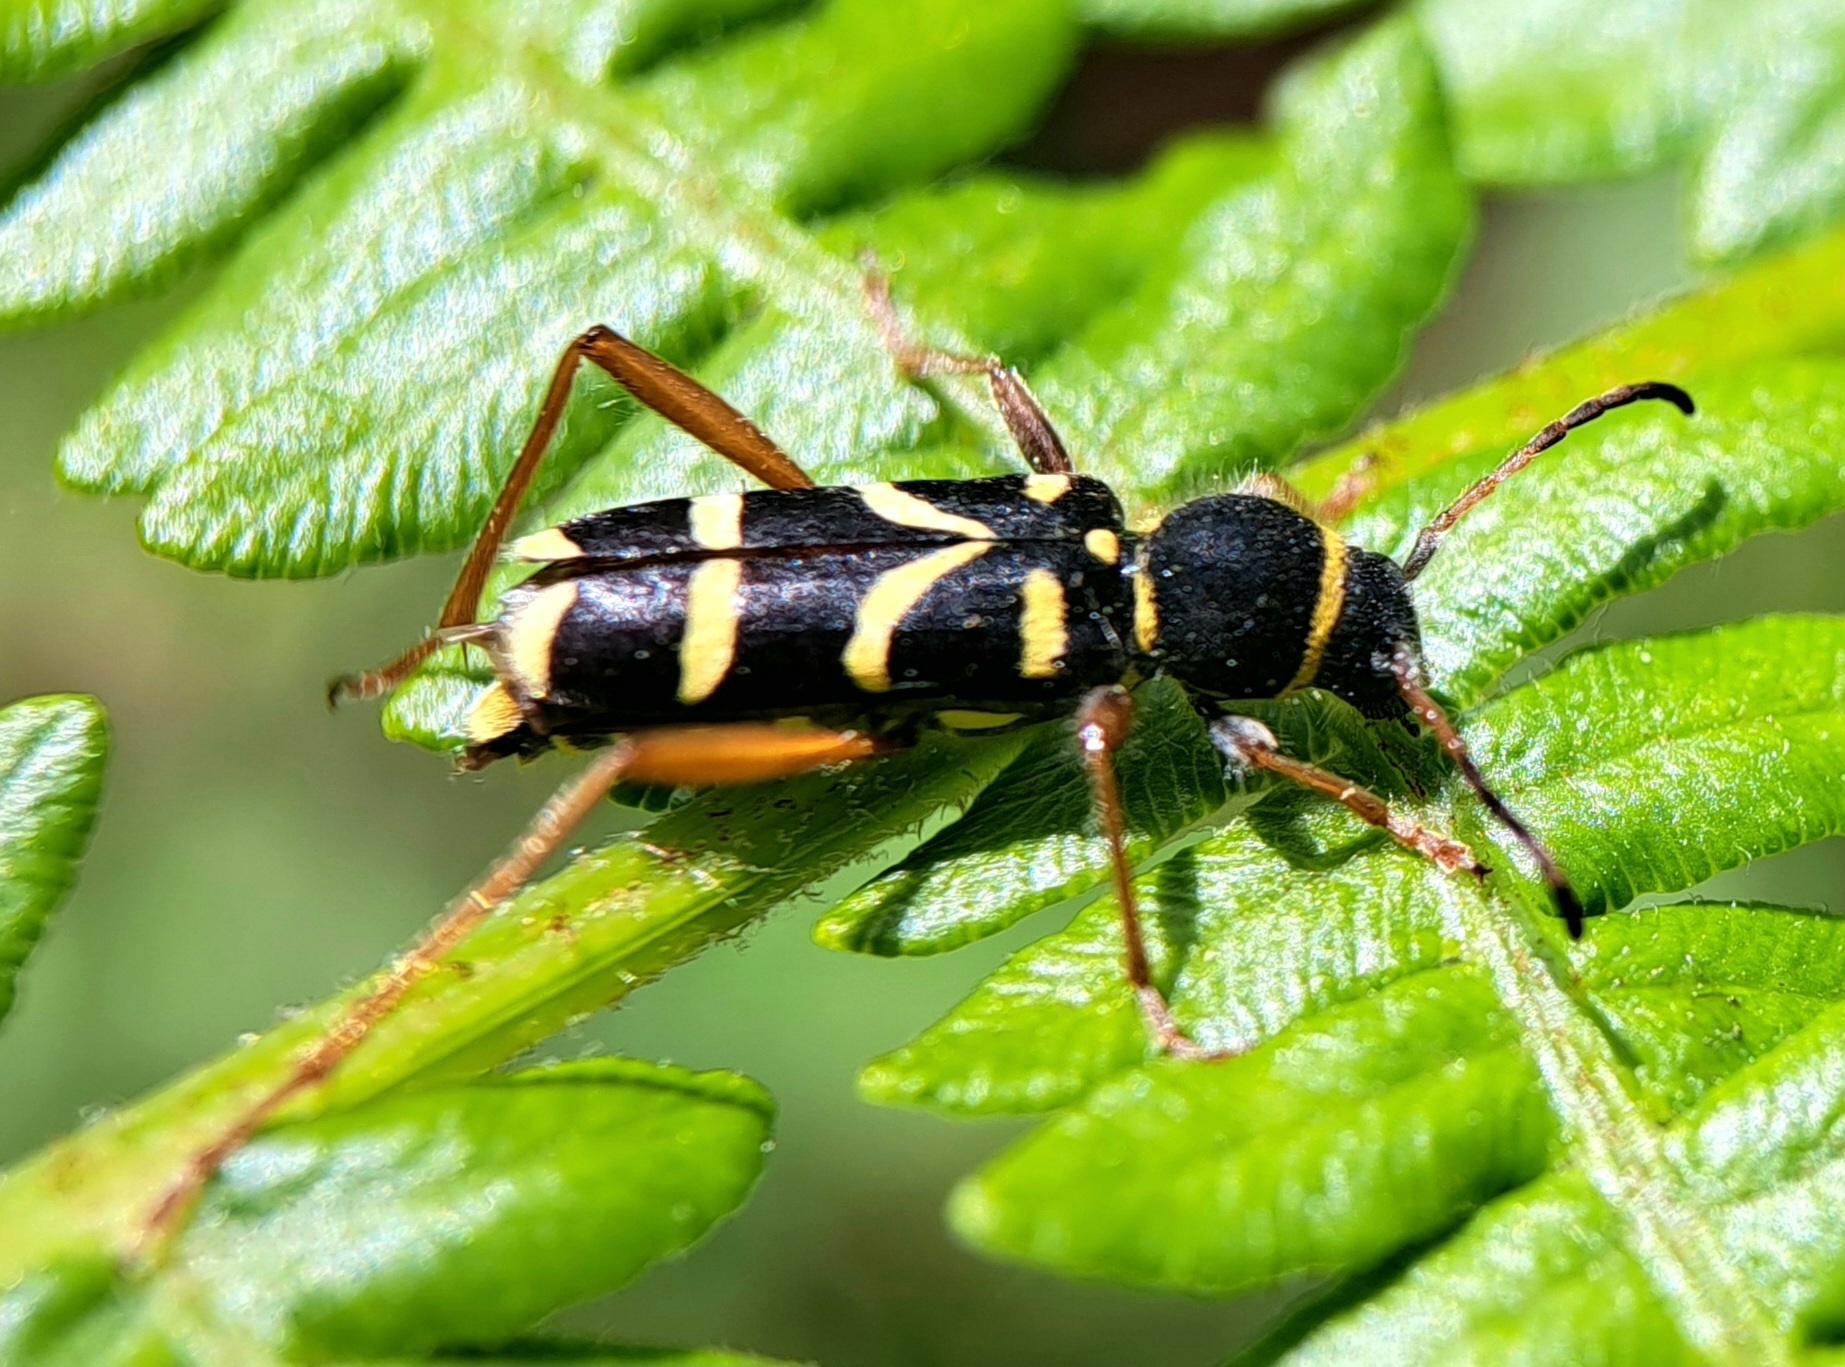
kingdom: Animalia
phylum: Arthropoda
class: Insecta
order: Coleoptera
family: Cerambycidae
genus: Clytus
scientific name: Clytus arietis
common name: Wasp beetle
